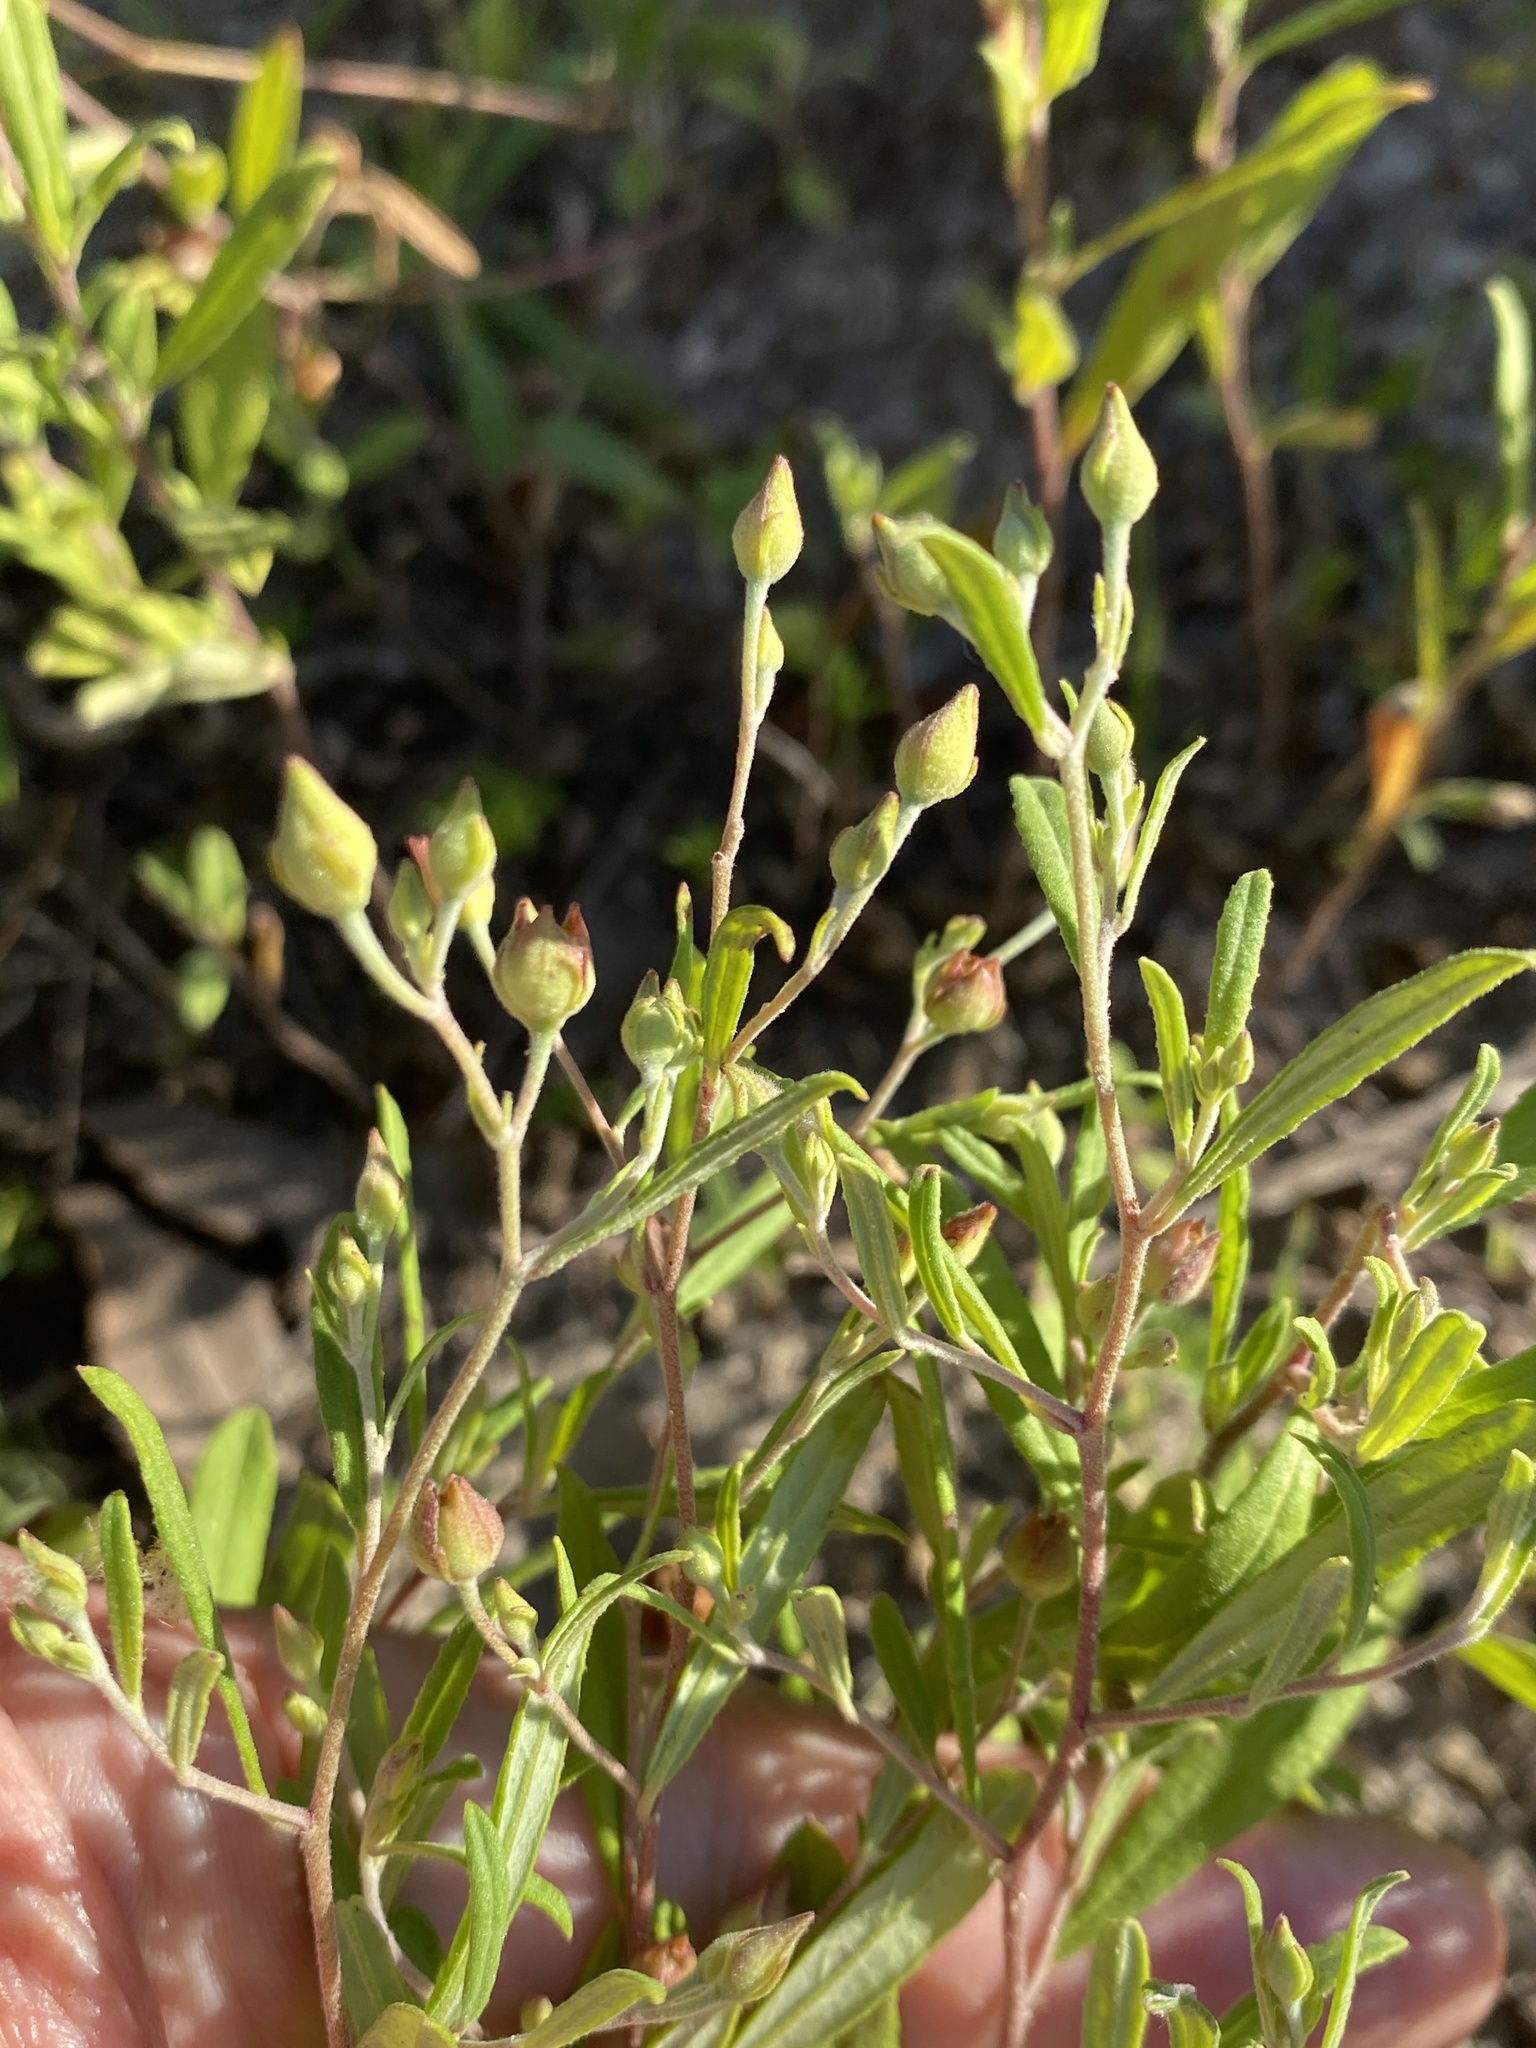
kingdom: Plantae
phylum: Tracheophyta
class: Magnoliopsida
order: Malvales
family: Cistaceae
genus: Crocanthemum
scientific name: Crocanthemum georgianum
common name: Georgia frostweed
